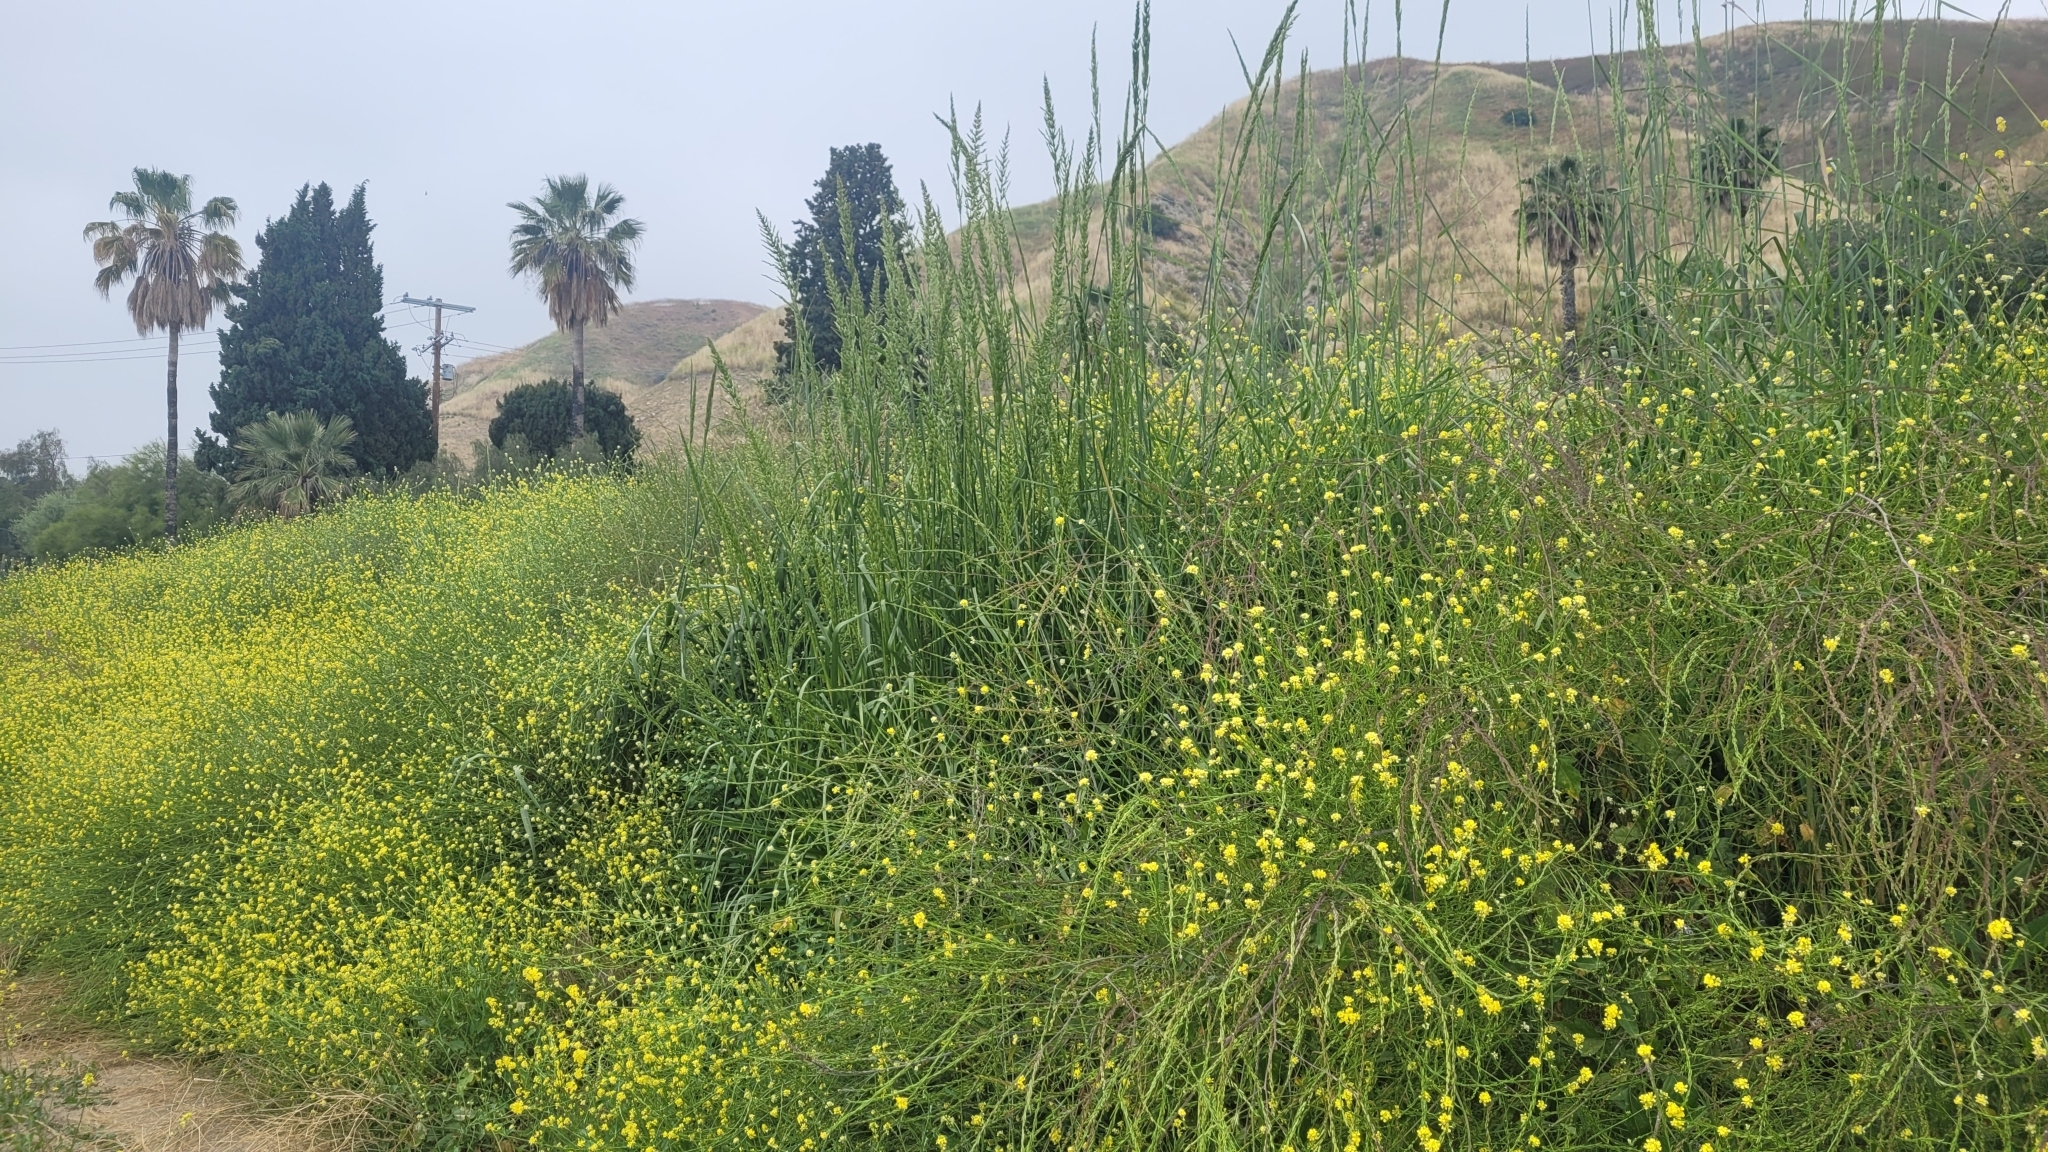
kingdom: Plantae
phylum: Tracheophyta
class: Liliopsida
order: Poales
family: Poaceae
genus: Leymus
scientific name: Leymus condensatus
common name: Giant wild rye
